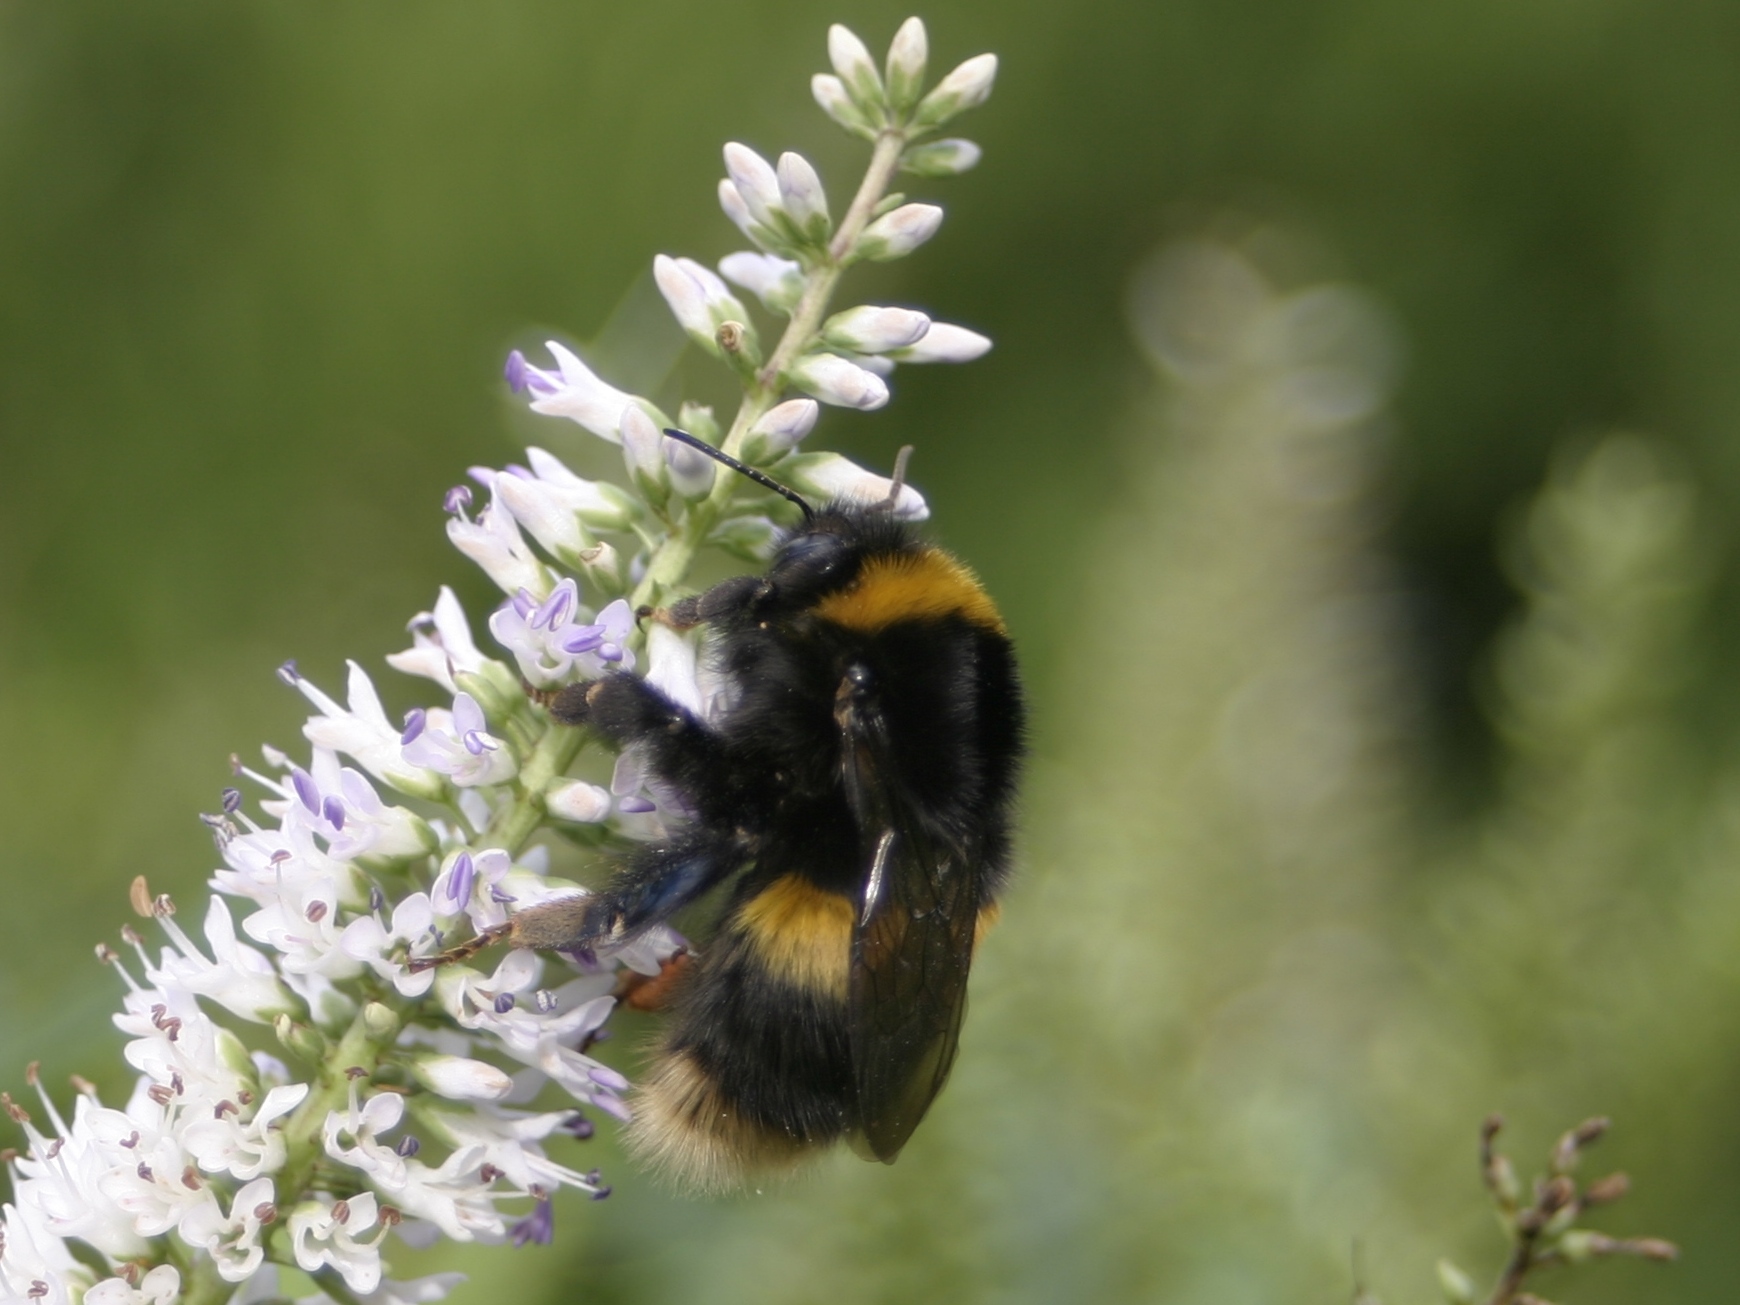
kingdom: Animalia
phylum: Arthropoda
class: Insecta
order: Hymenoptera
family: Apidae
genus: Bombus
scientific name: Bombus terrestris
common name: Buff-tailed bumblebee
